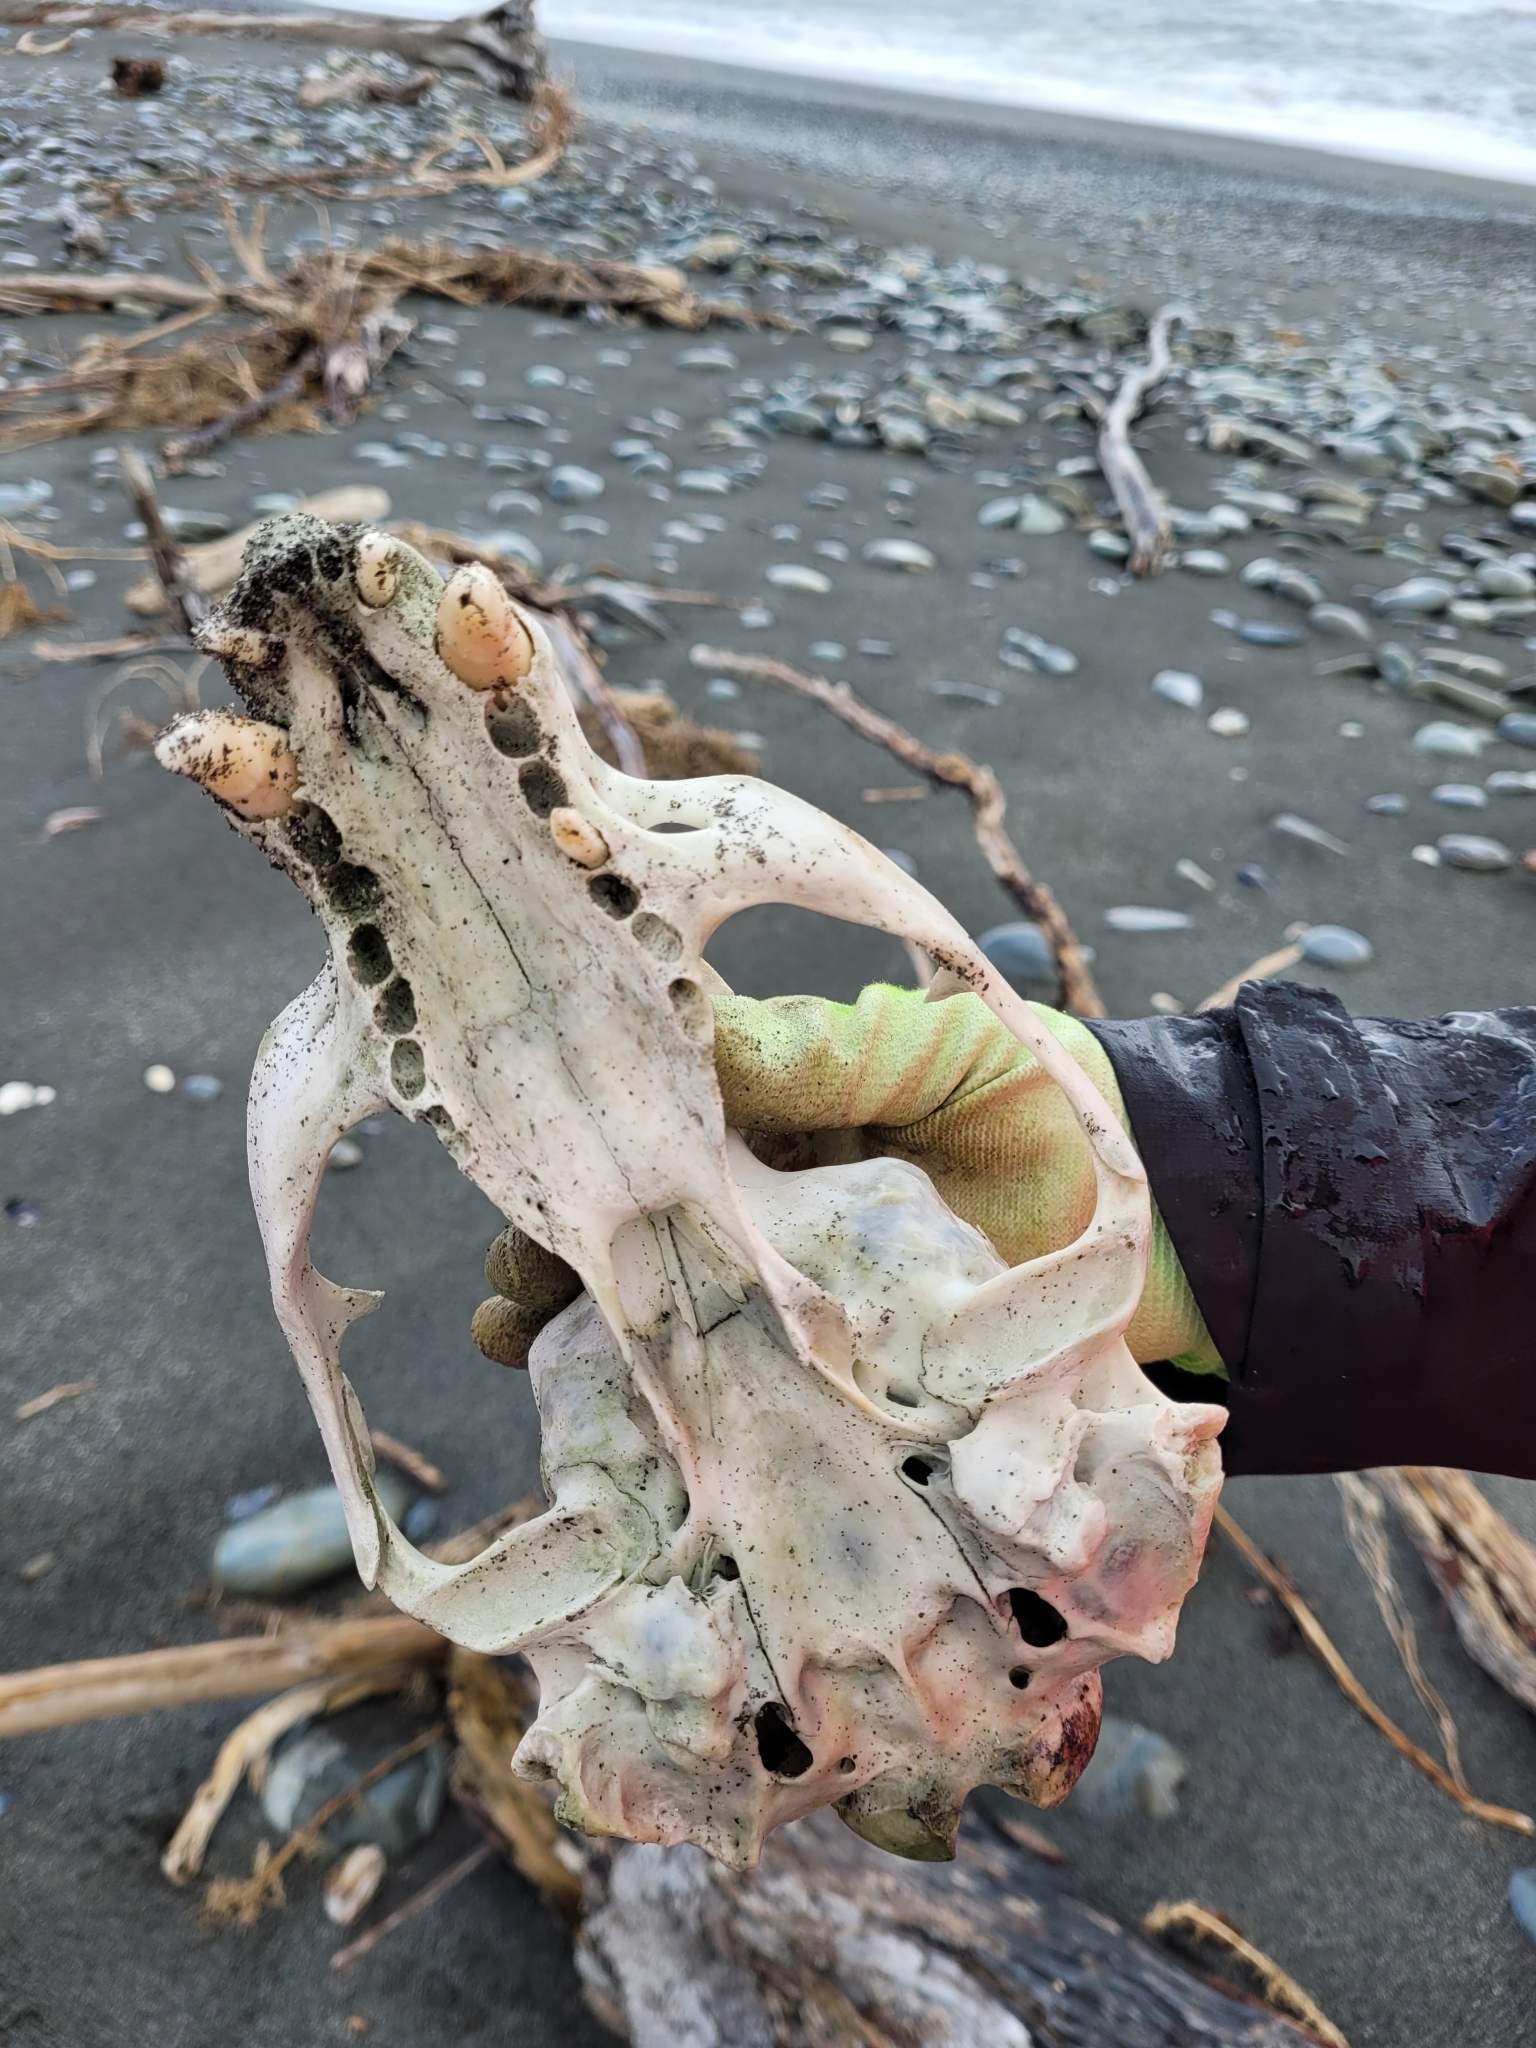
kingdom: Animalia
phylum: Chordata
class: Mammalia
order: Carnivora
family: Otariidae
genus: Arctocephalus
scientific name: Arctocephalus forsteri
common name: New zealand fur seal
